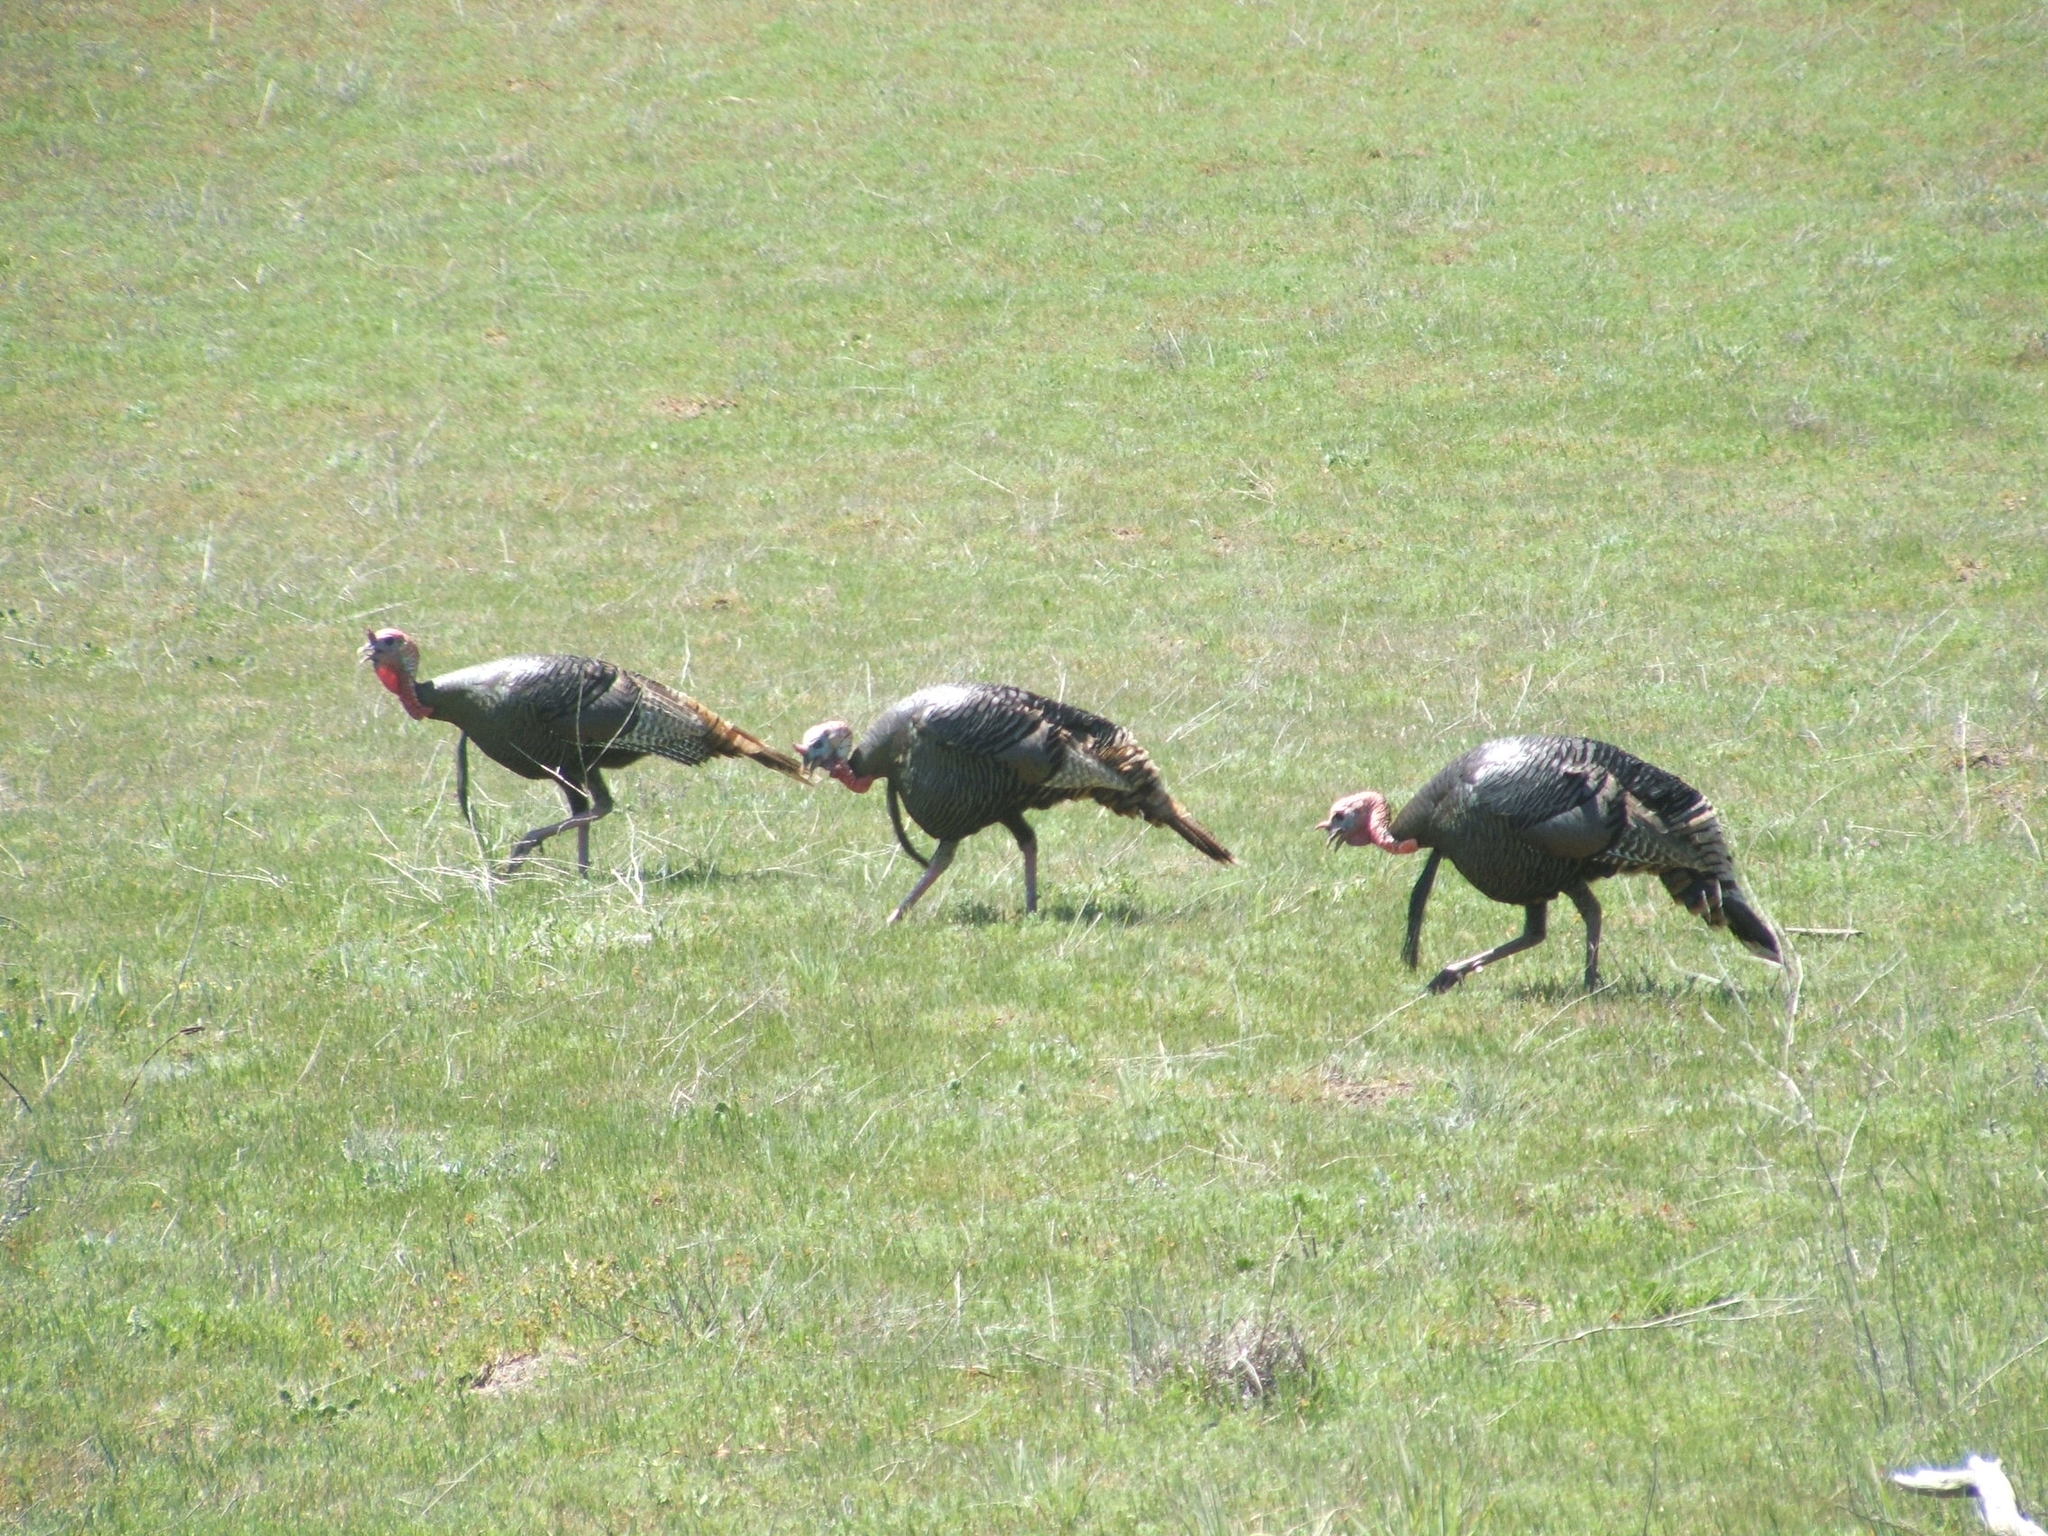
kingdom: Animalia
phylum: Chordata
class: Aves
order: Galliformes
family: Phasianidae
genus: Meleagris
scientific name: Meleagris gallopavo
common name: Wild turkey
